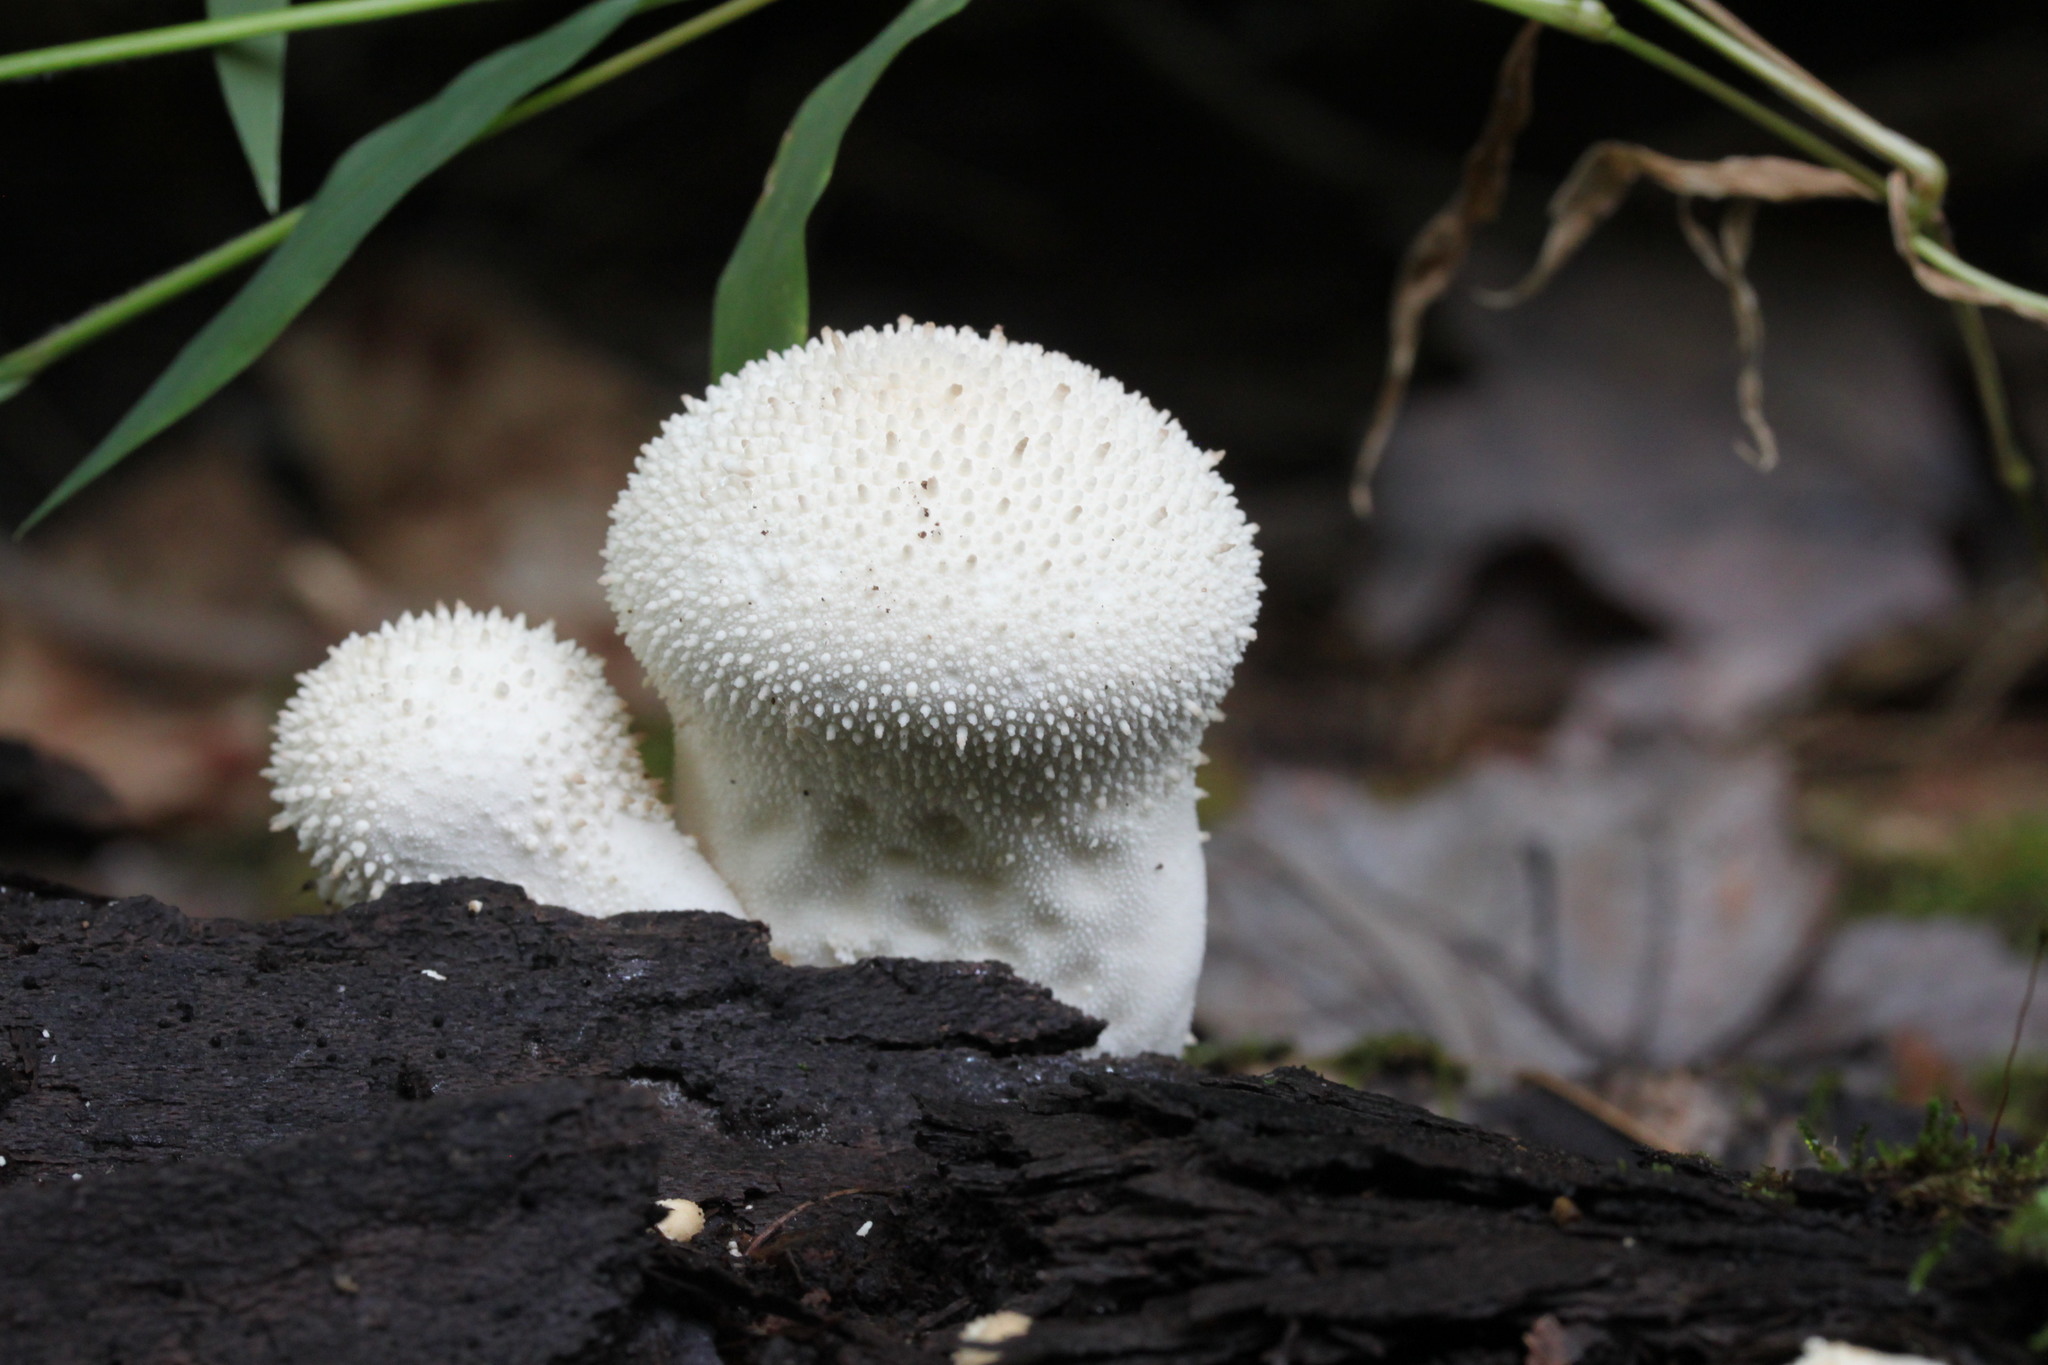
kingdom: Fungi
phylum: Basidiomycota
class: Agaricomycetes
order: Agaricales
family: Lycoperdaceae
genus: Lycoperdon
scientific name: Lycoperdon perlatum
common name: Common puffball
